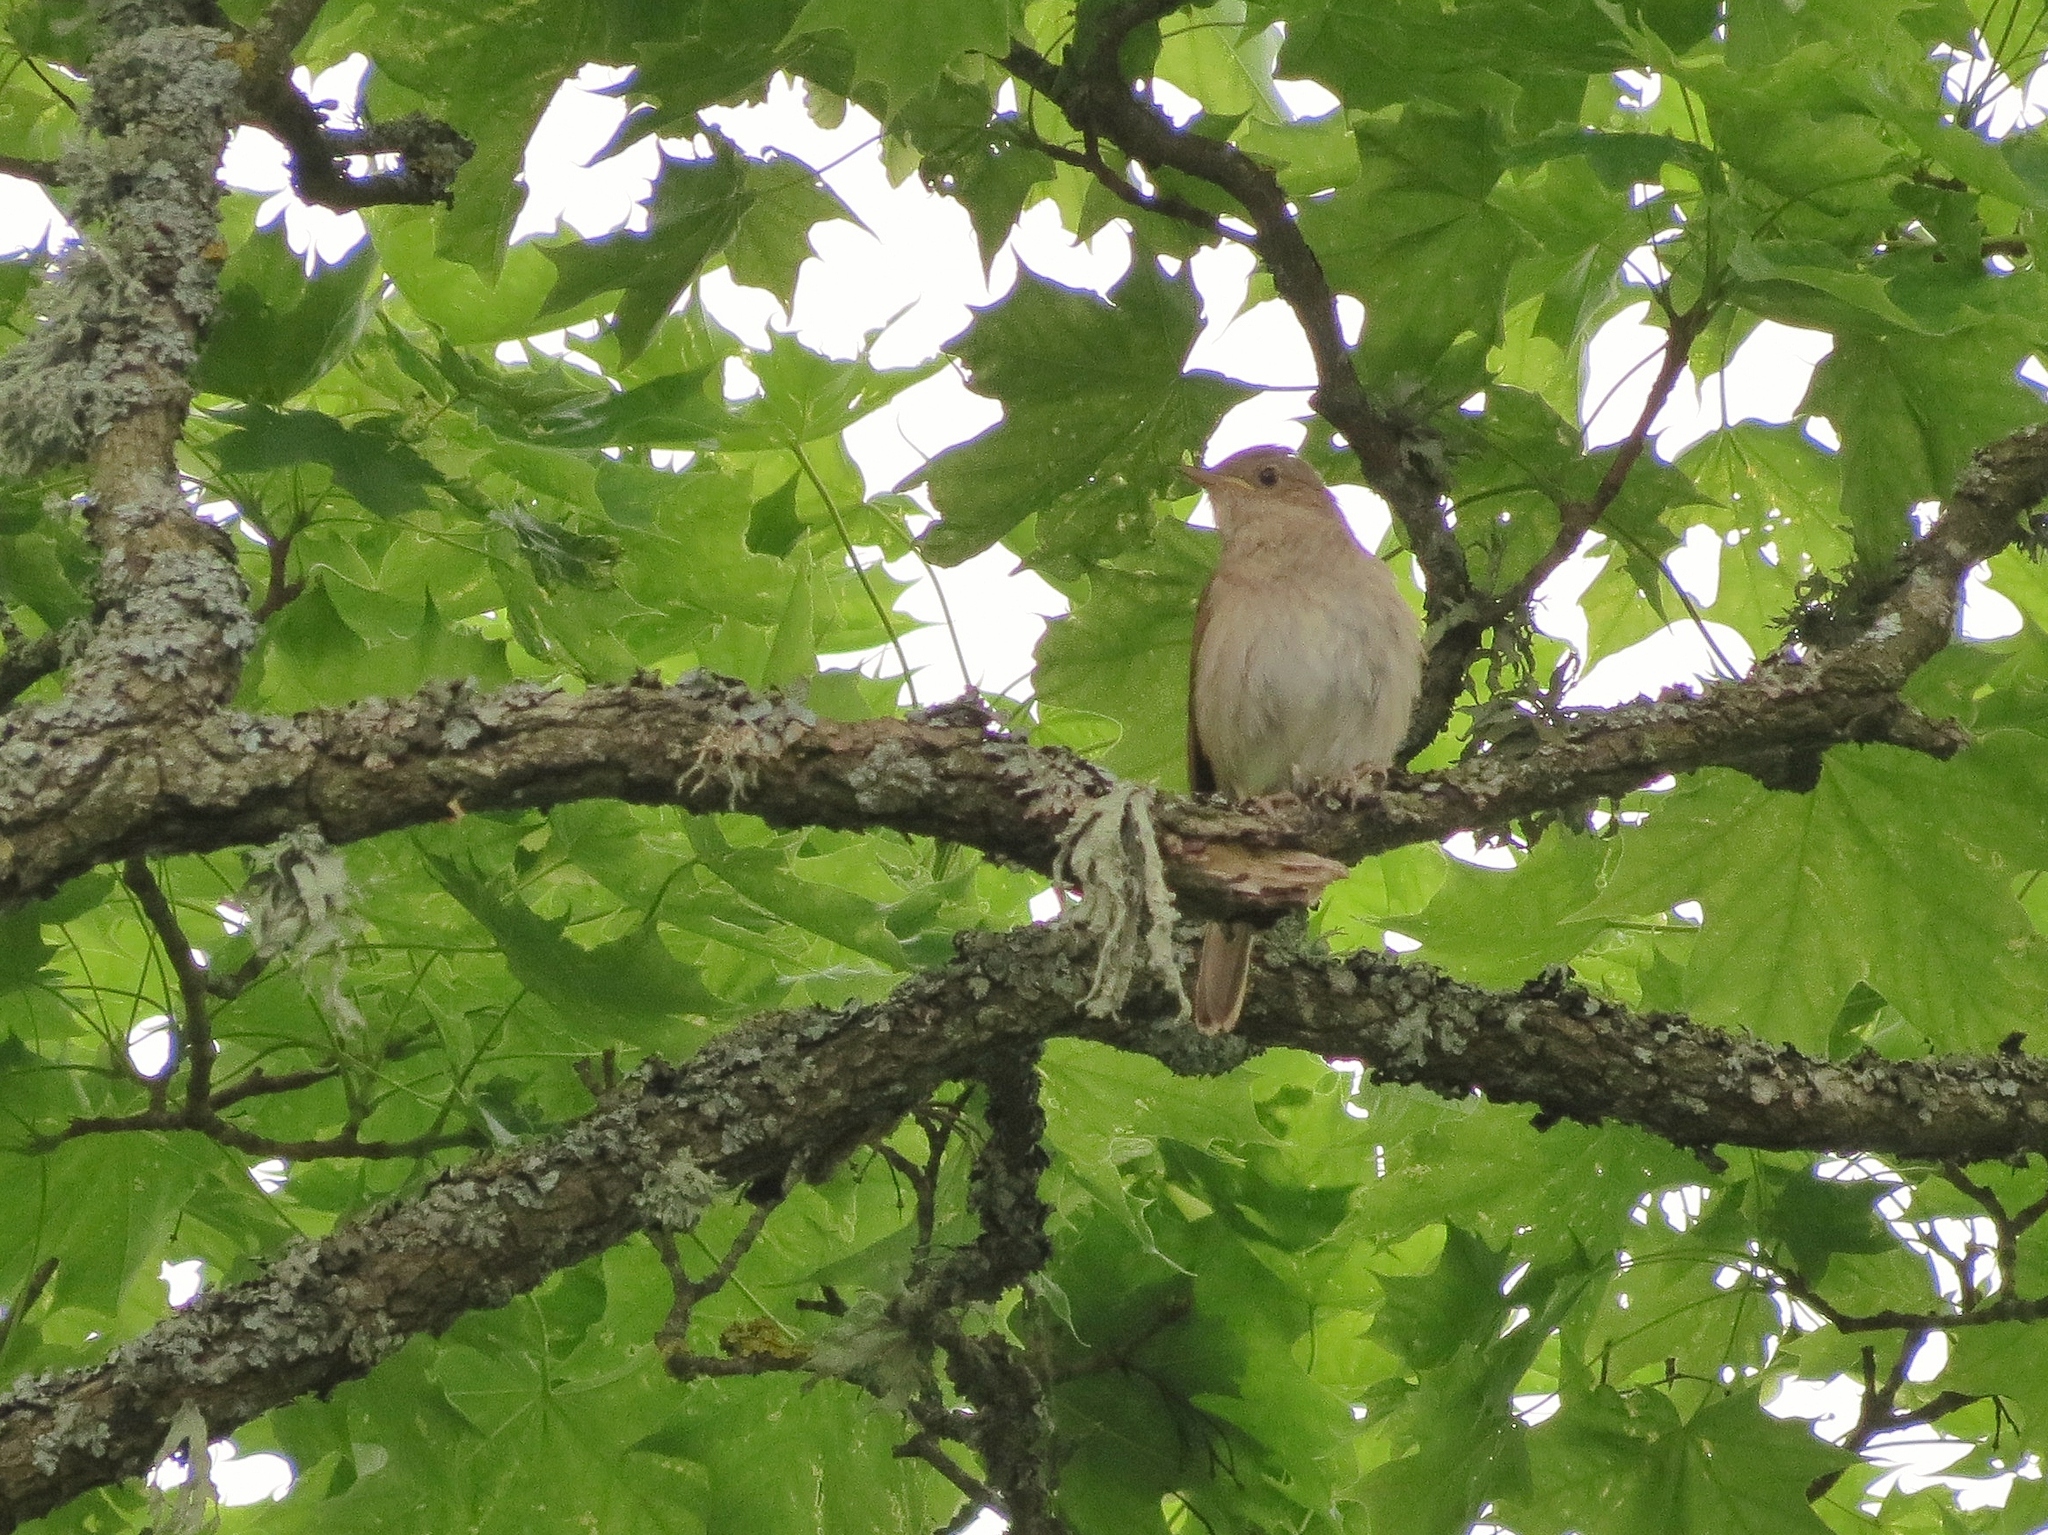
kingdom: Animalia
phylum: Chordata
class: Aves
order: Passeriformes
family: Muscicapidae
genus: Luscinia
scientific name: Luscinia luscinia
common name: Thrush nightingale
